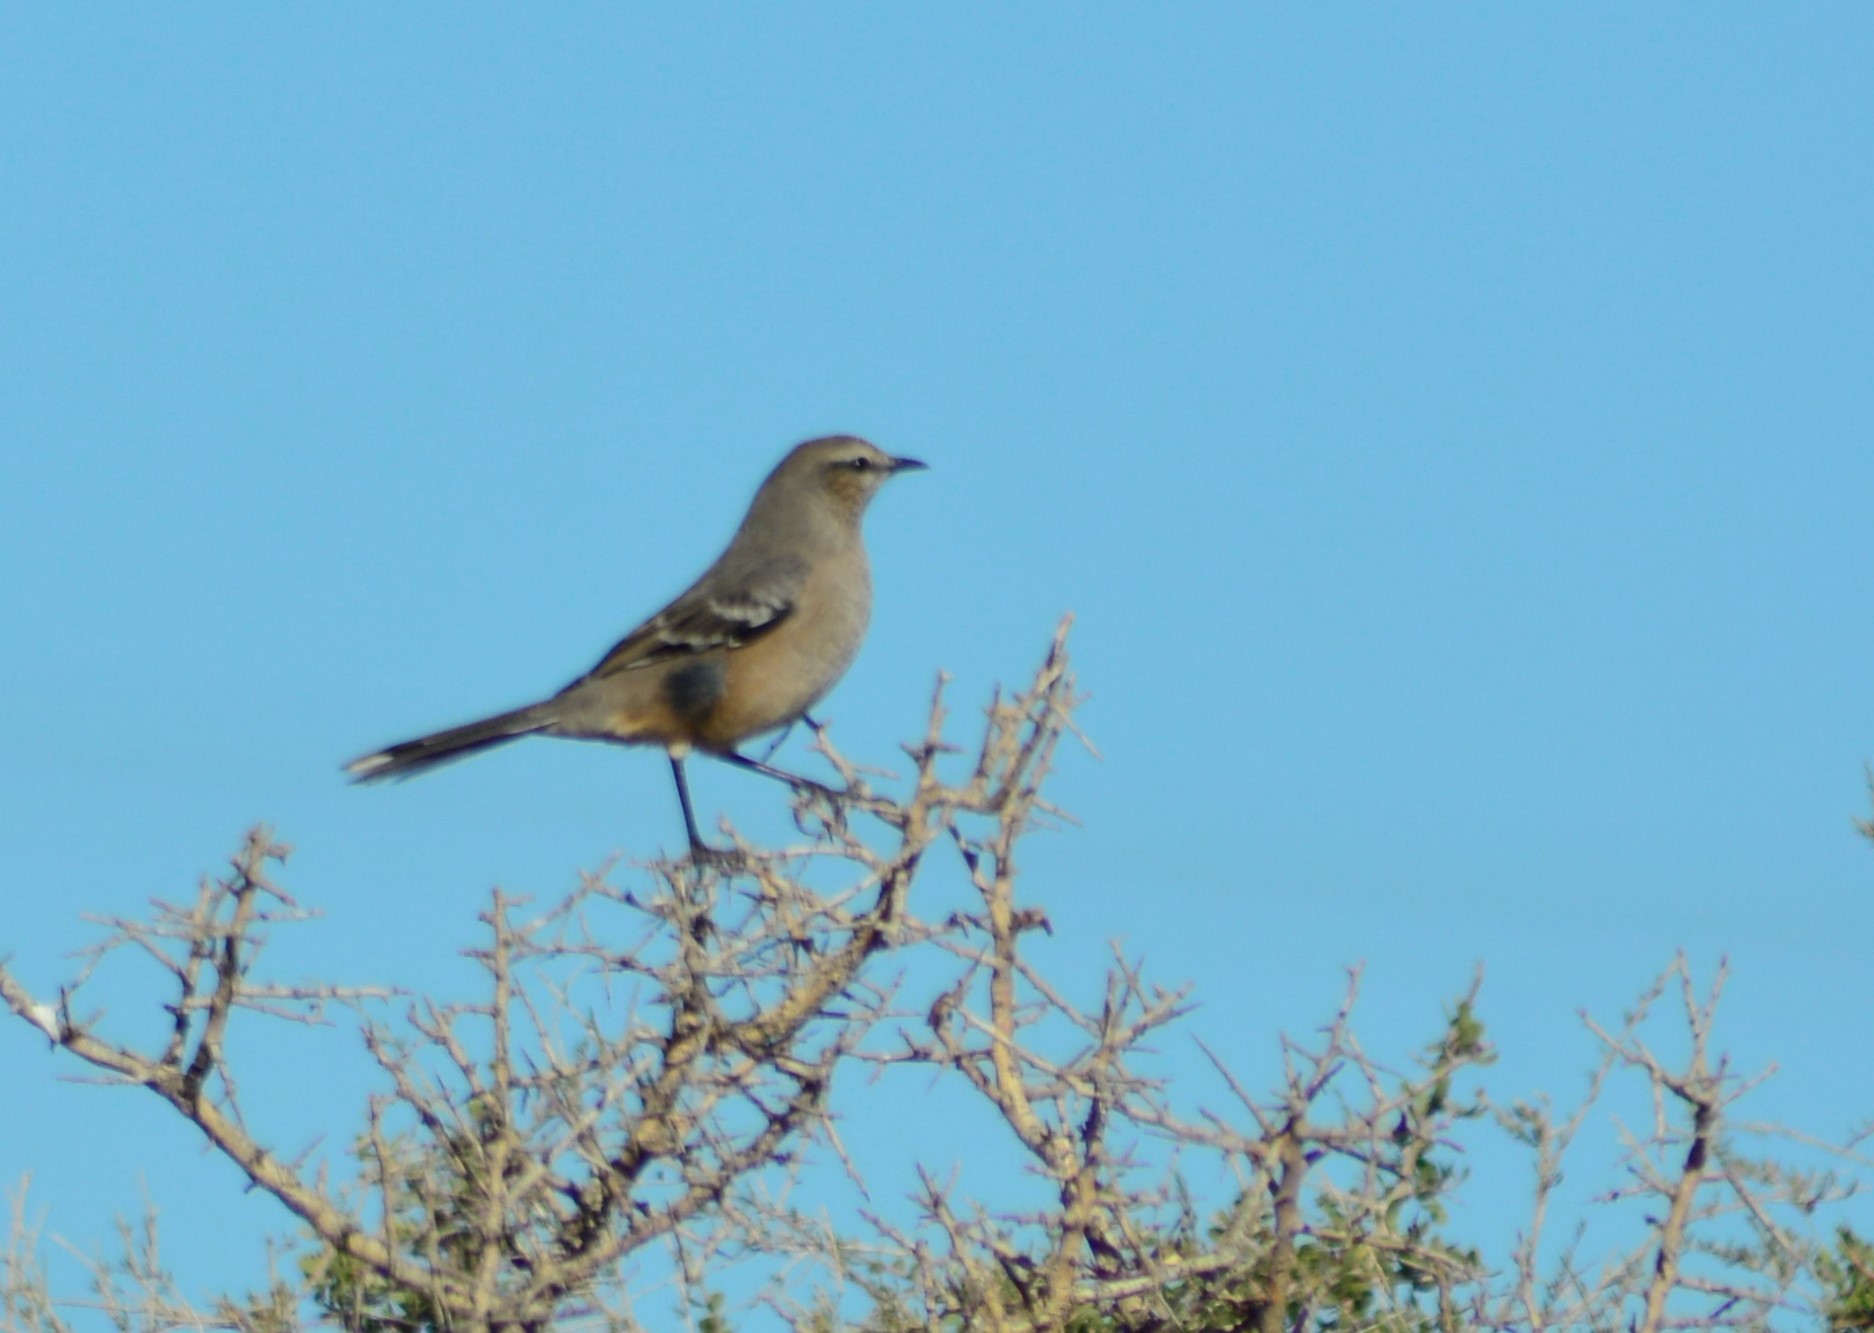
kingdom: Animalia
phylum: Chordata
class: Aves
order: Passeriformes
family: Mimidae
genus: Mimus
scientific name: Mimus patagonicus
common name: Patagonian mockingbird
